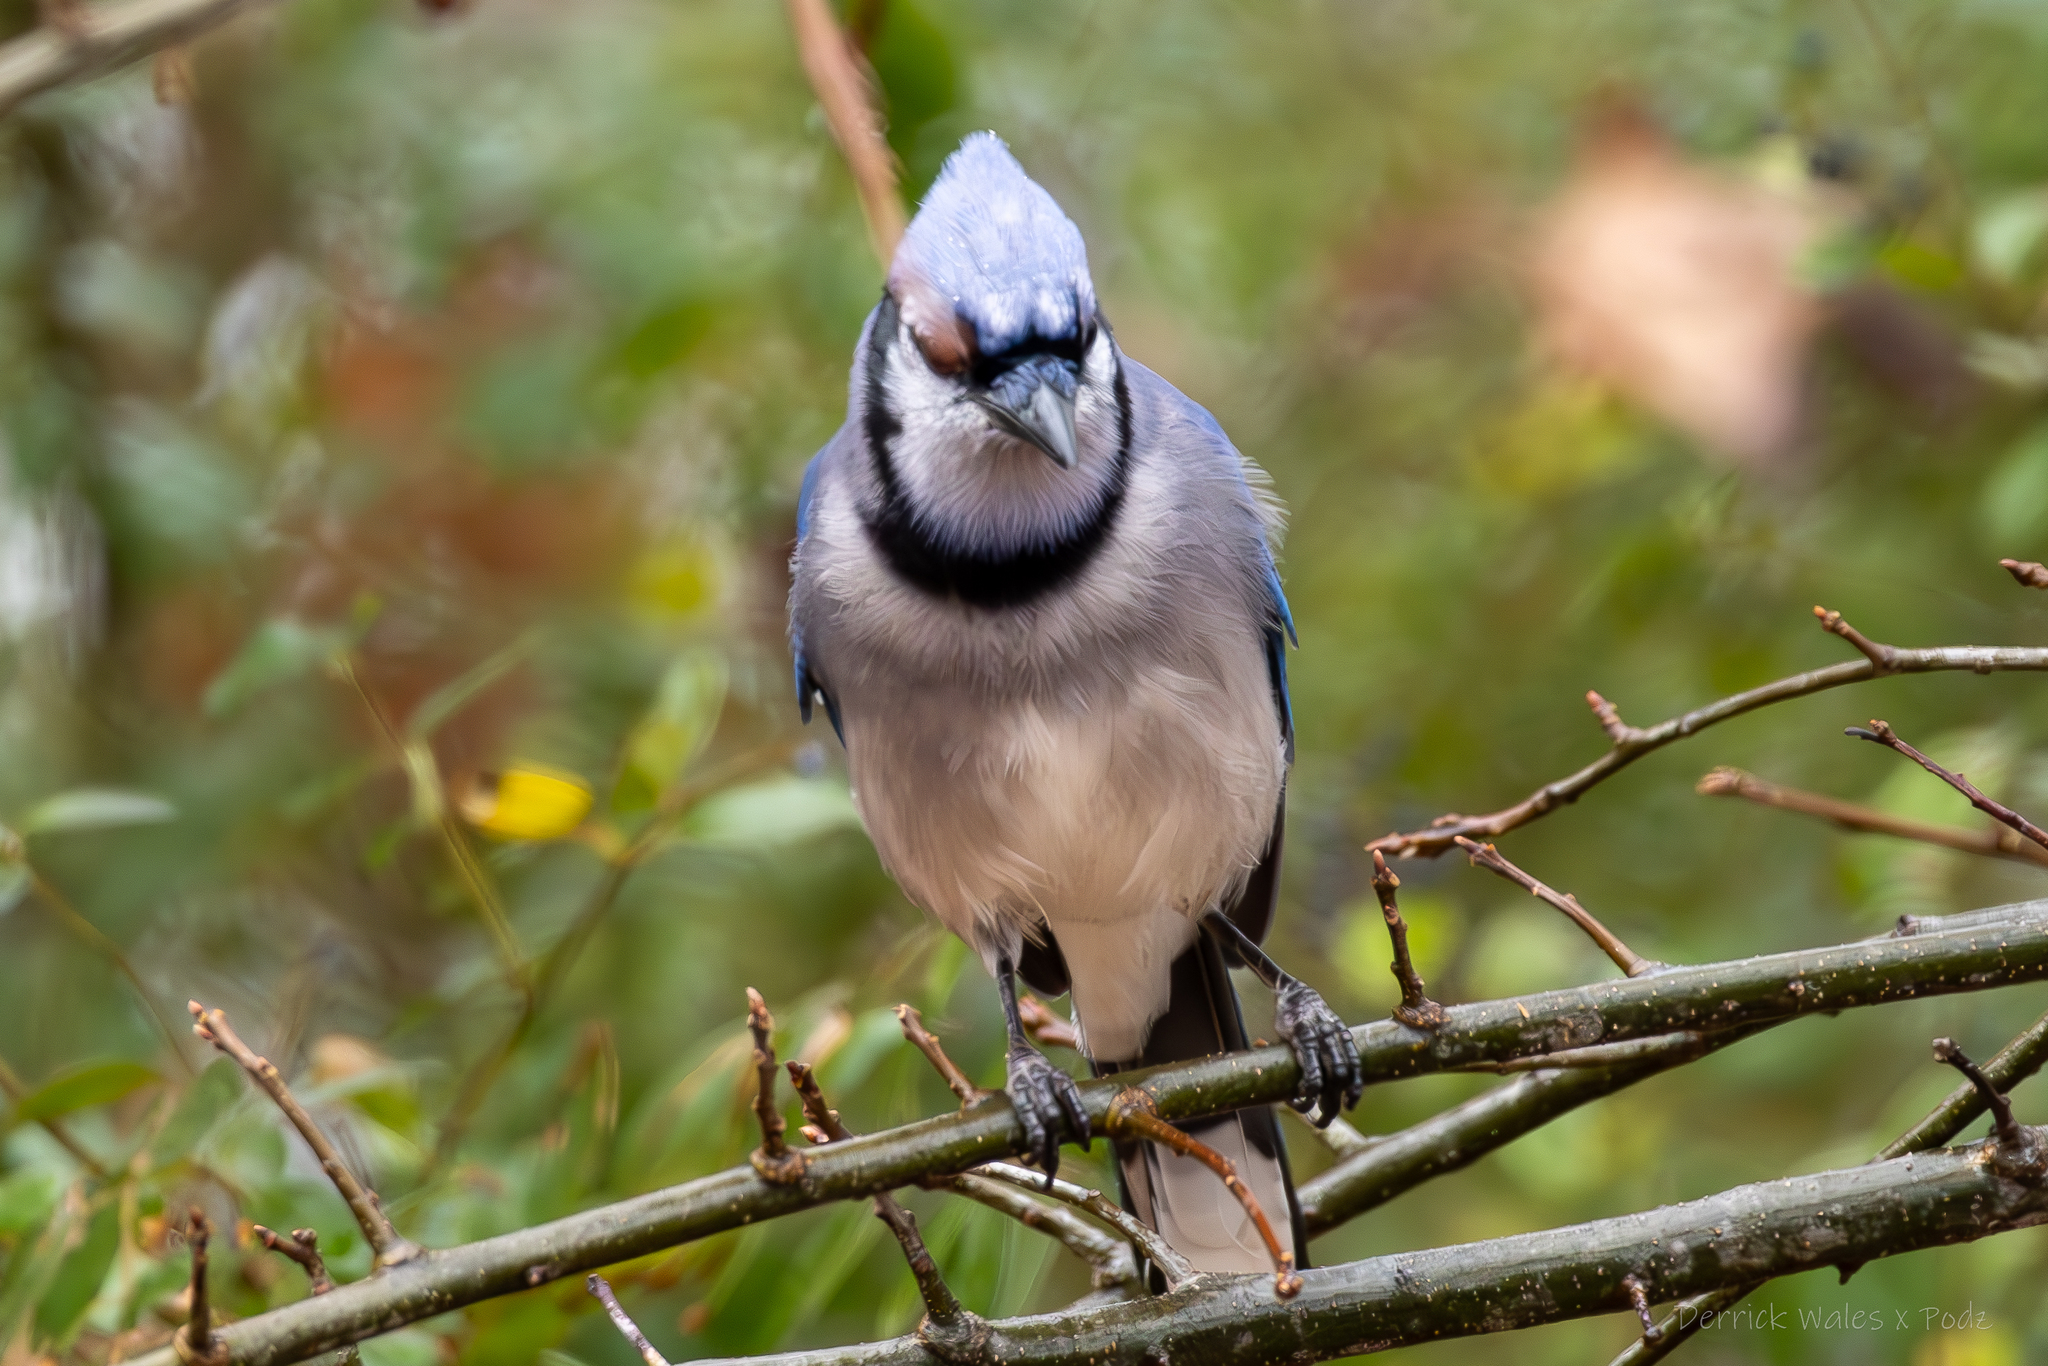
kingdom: Animalia
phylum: Chordata
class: Aves
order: Passeriformes
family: Corvidae
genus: Cyanocitta
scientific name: Cyanocitta cristata
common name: Blue jay
